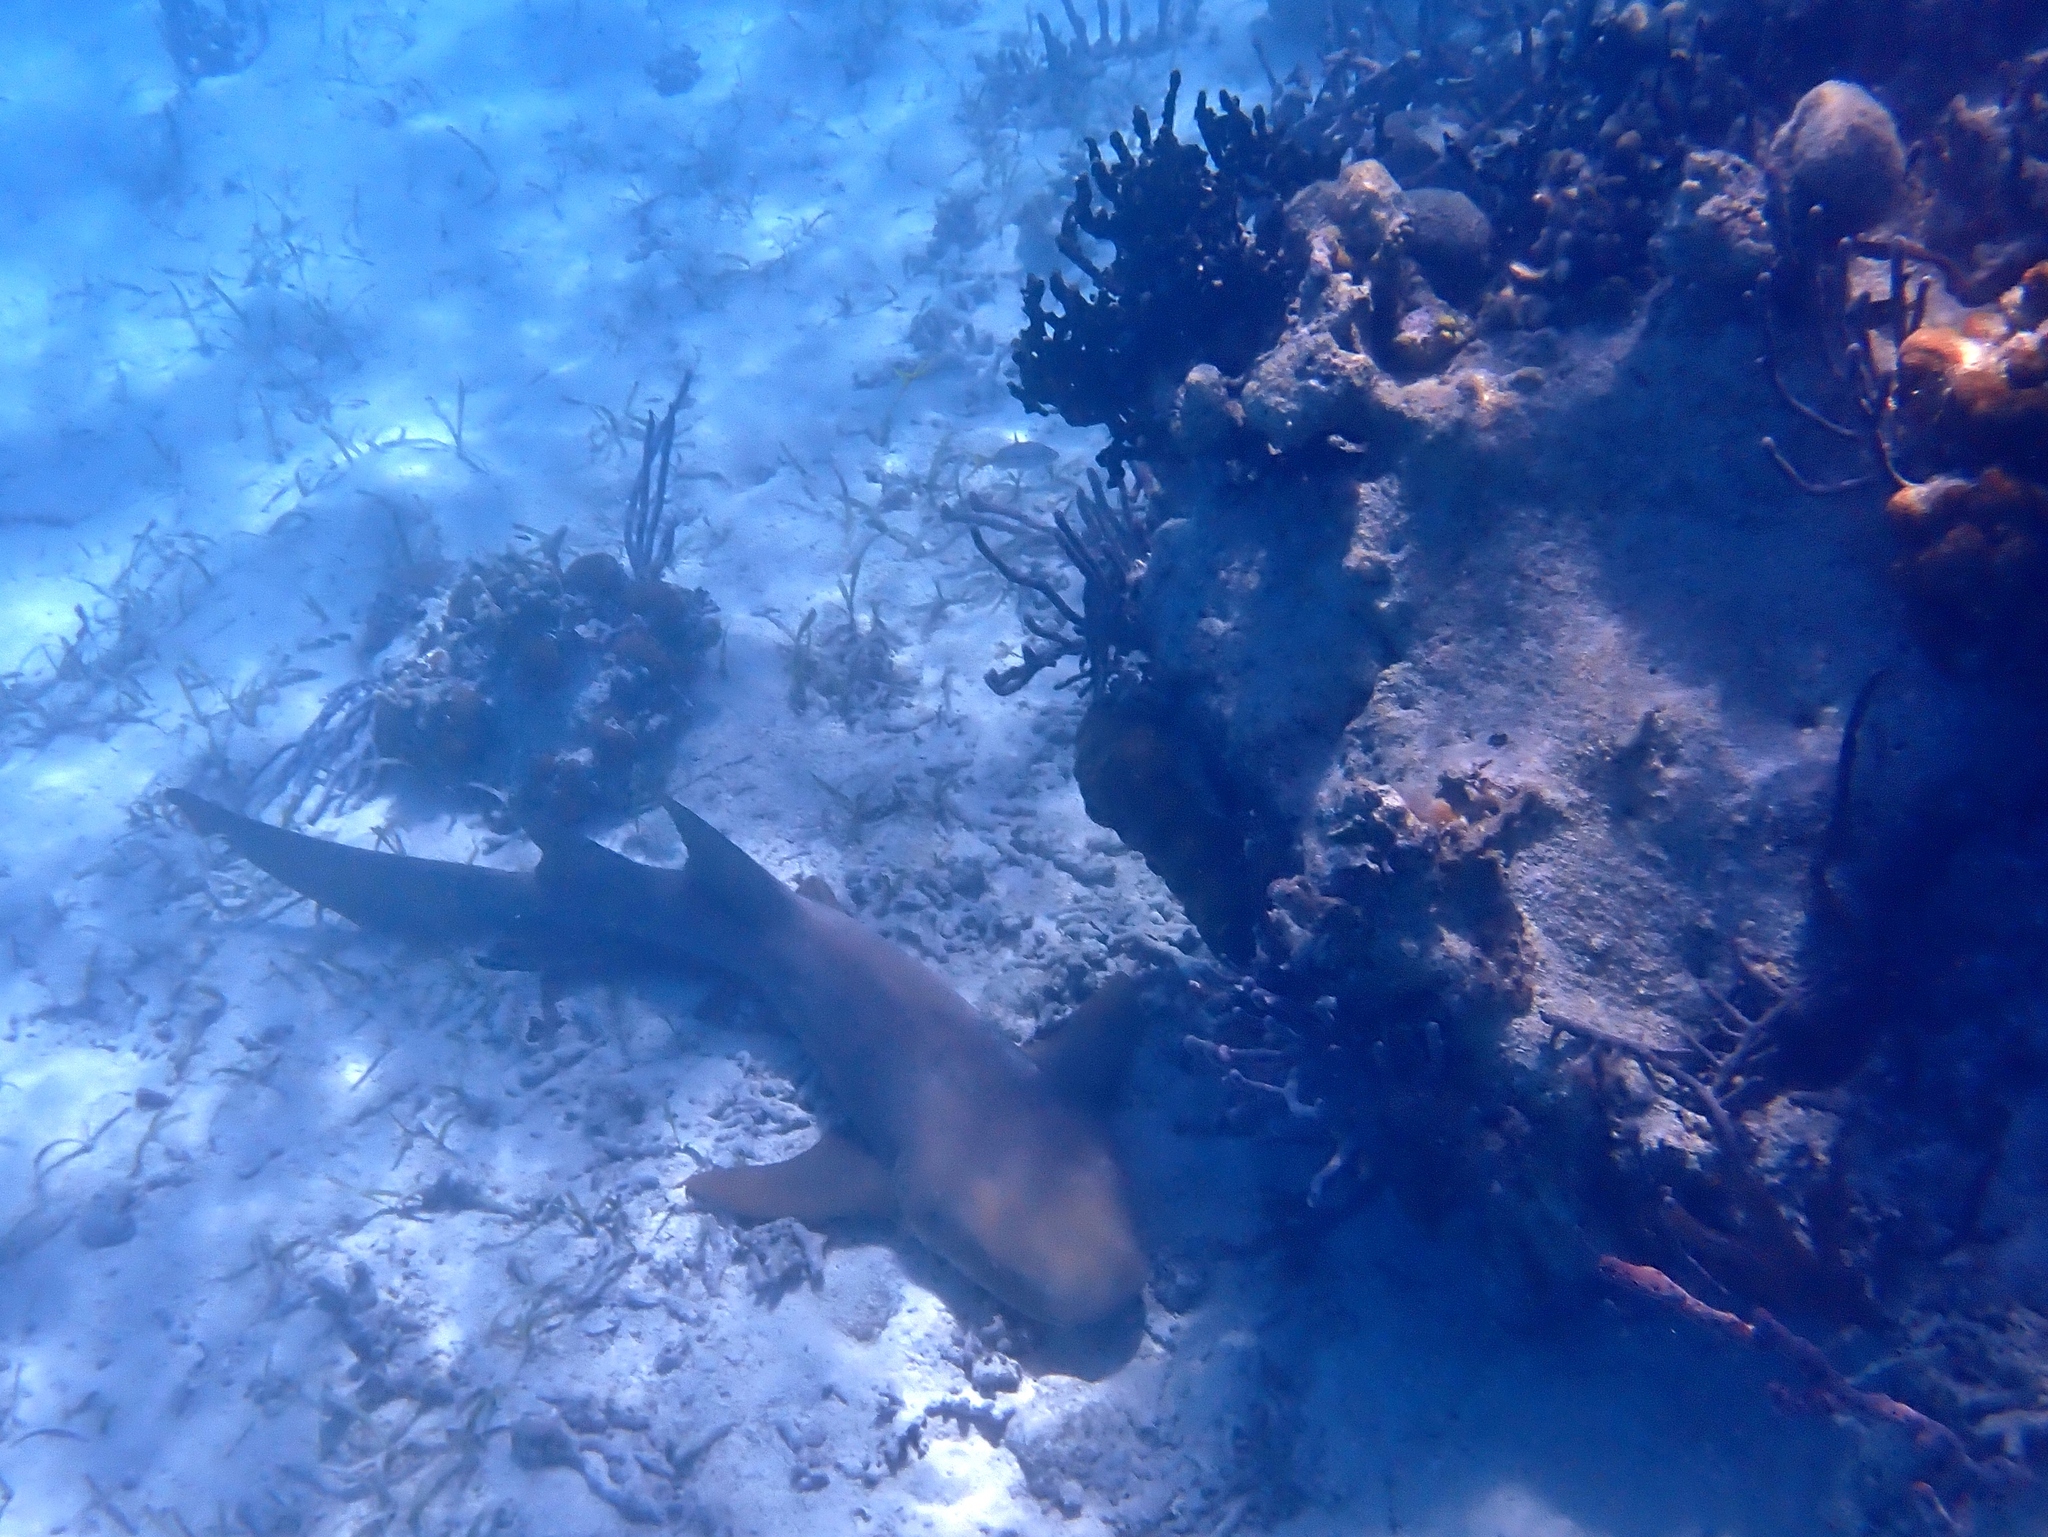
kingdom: Animalia
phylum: Chordata
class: Elasmobranchii
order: Orectolobiformes
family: Ginglymostomatidae
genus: Ginglymostoma
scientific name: Ginglymostoma cirratum
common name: Nurse shark
